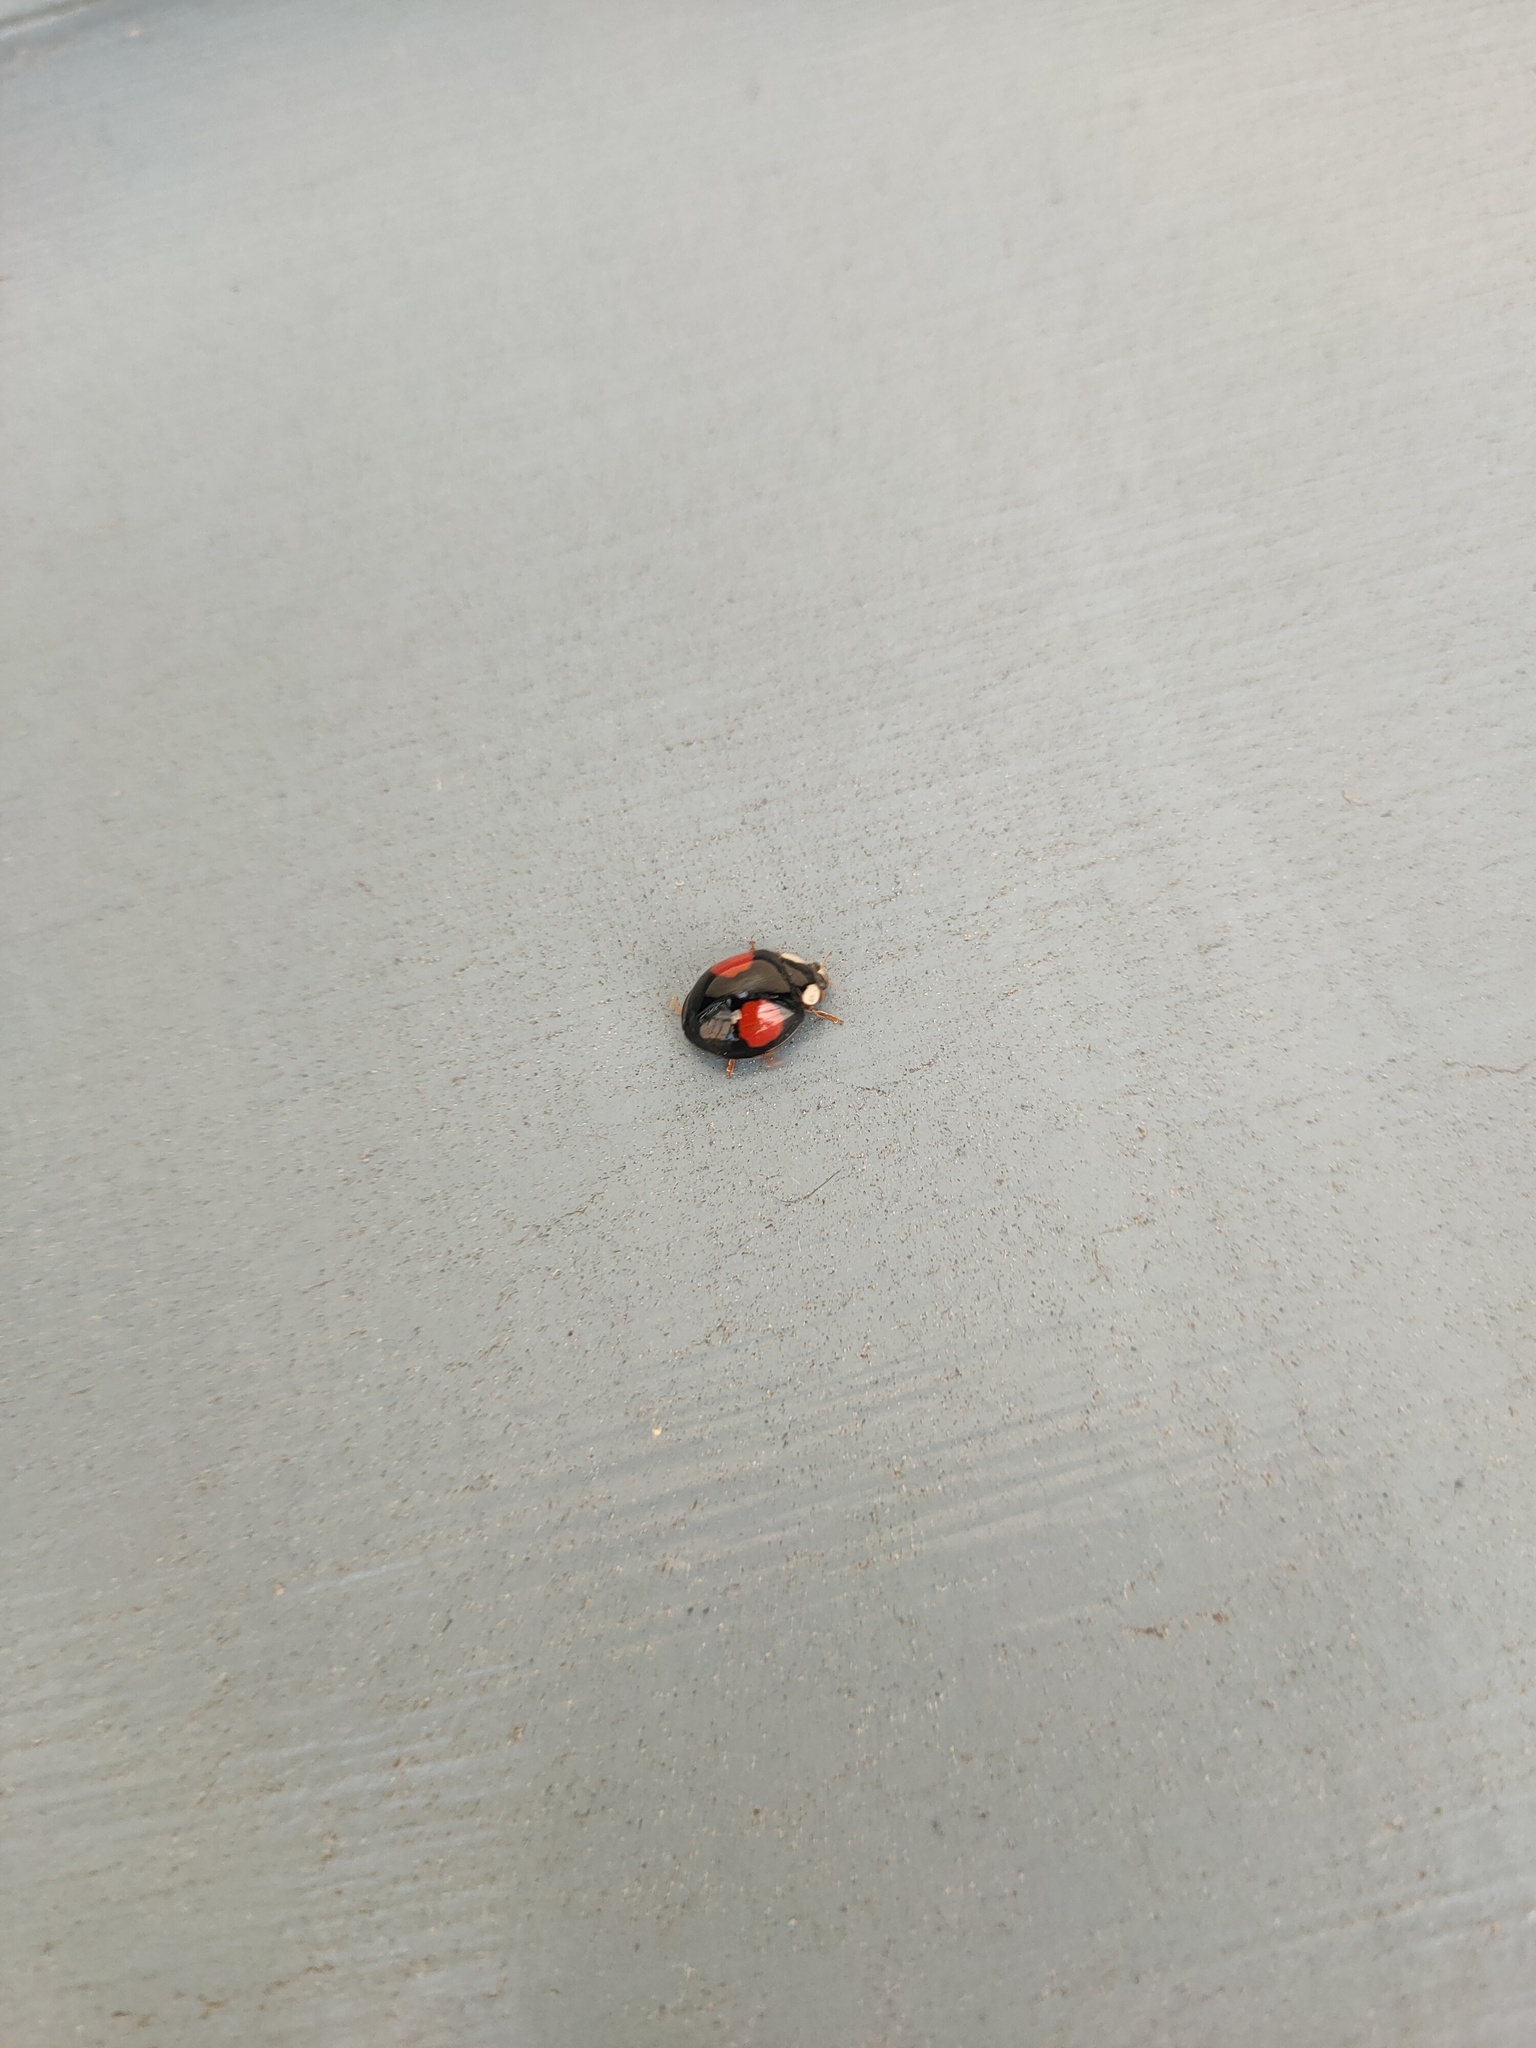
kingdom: Animalia
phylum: Arthropoda
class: Insecta
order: Coleoptera
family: Coccinellidae
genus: Harmonia
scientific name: Harmonia axyridis
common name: Harlequin ladybird
